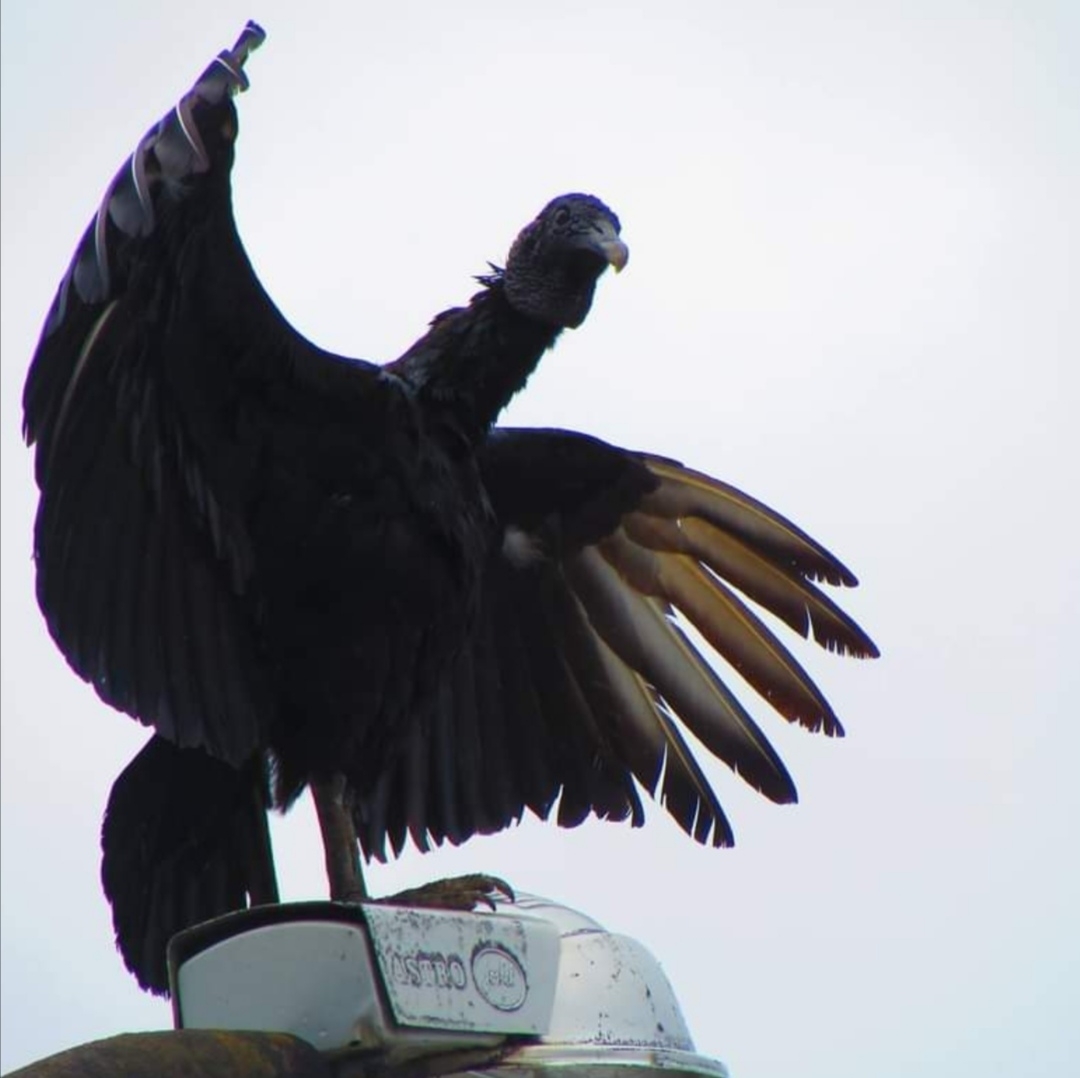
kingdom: Animalia
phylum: Chordata
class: Aves
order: Accipitriformes
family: Cathartidae
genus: Coragyps
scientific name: Coragyps atratus
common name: Black vulture
